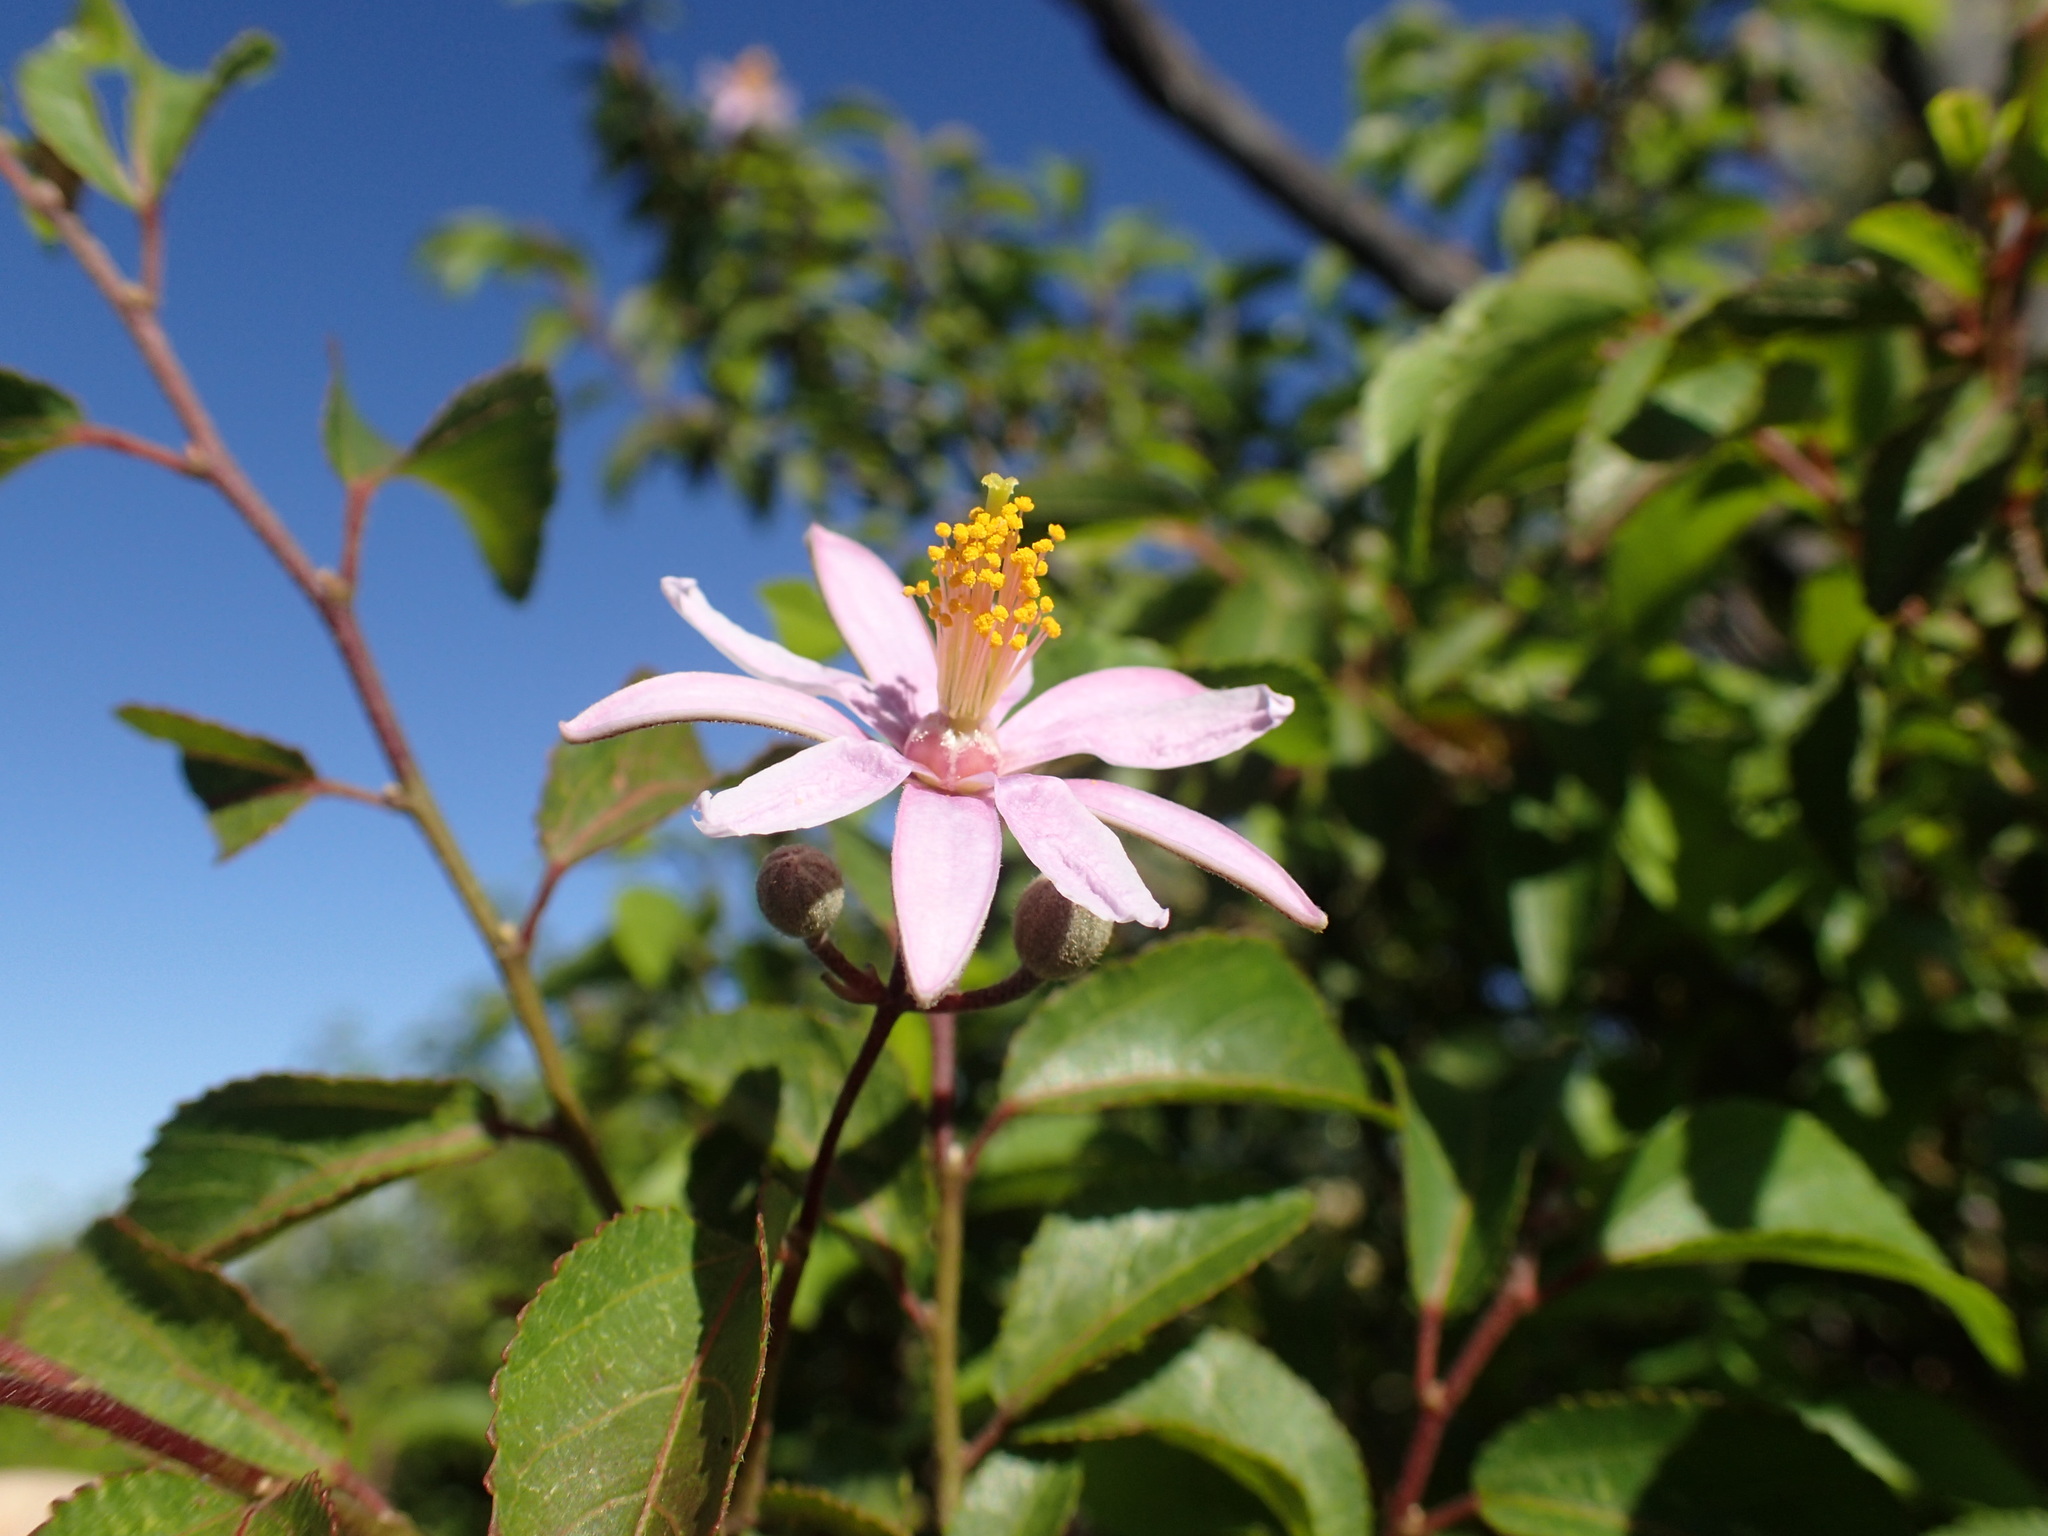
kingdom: Plantae
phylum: Tracheophyta
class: Magnoliopsida
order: Malvales
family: Malvaceae
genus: Grewia
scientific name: Grewia occidentalis
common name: Crossberry
